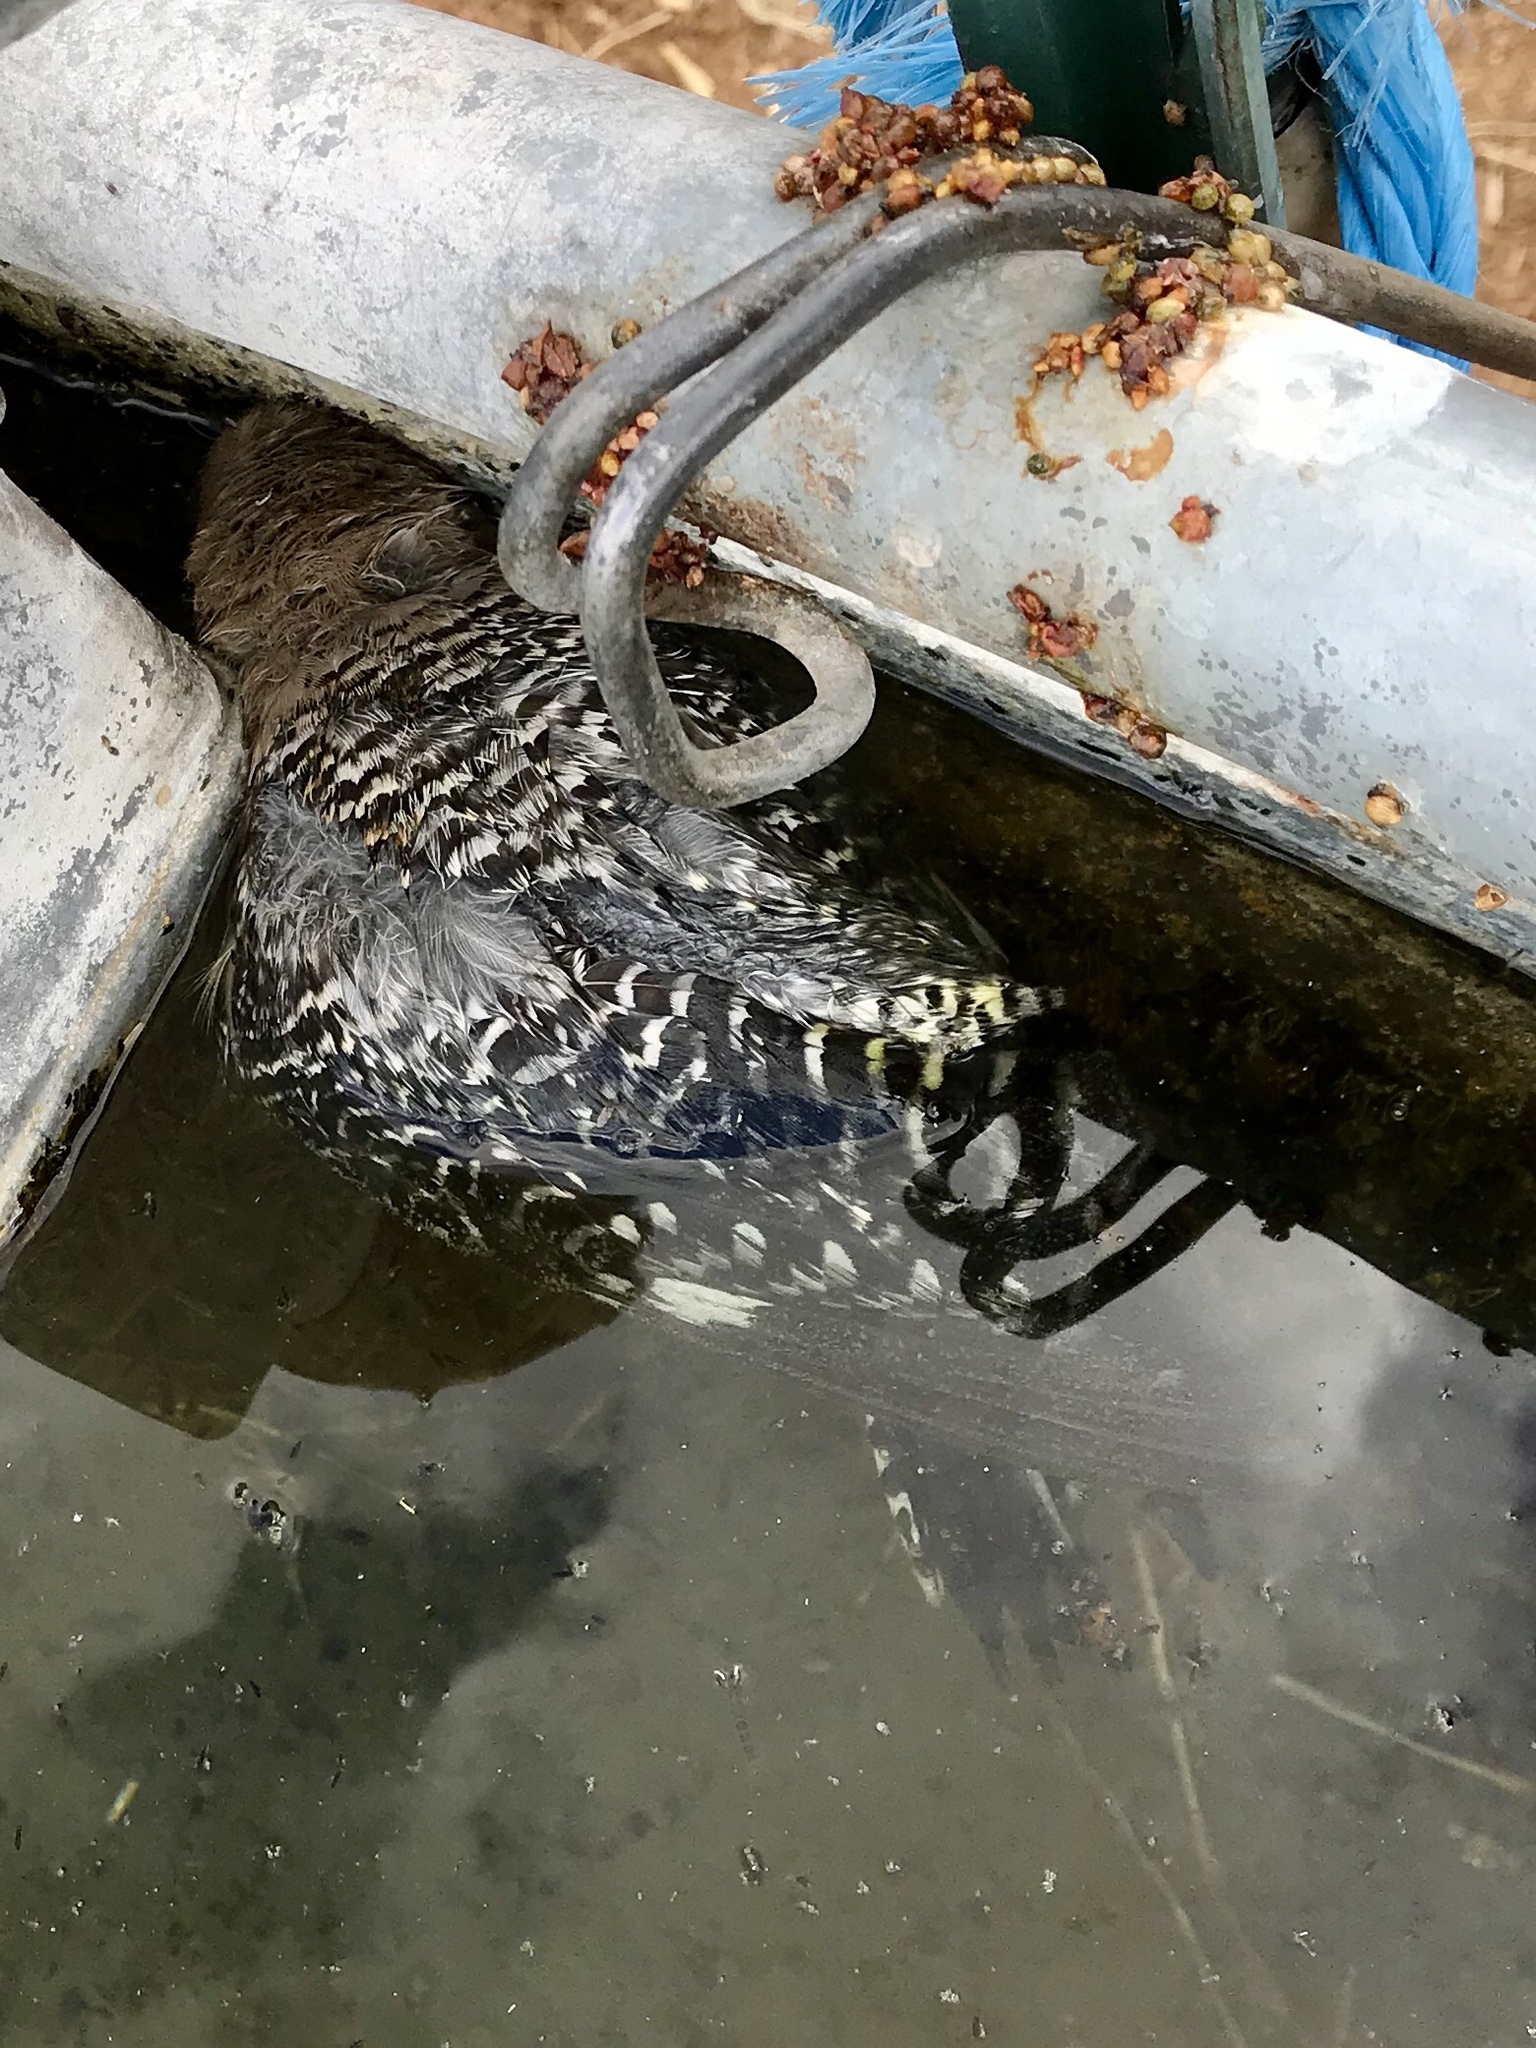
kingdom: Animalia
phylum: Chordata
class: Aves
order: Piciformes
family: Picidae
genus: Melanerpes
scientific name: Melanerpes uropygialis
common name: Gila woodpecker
